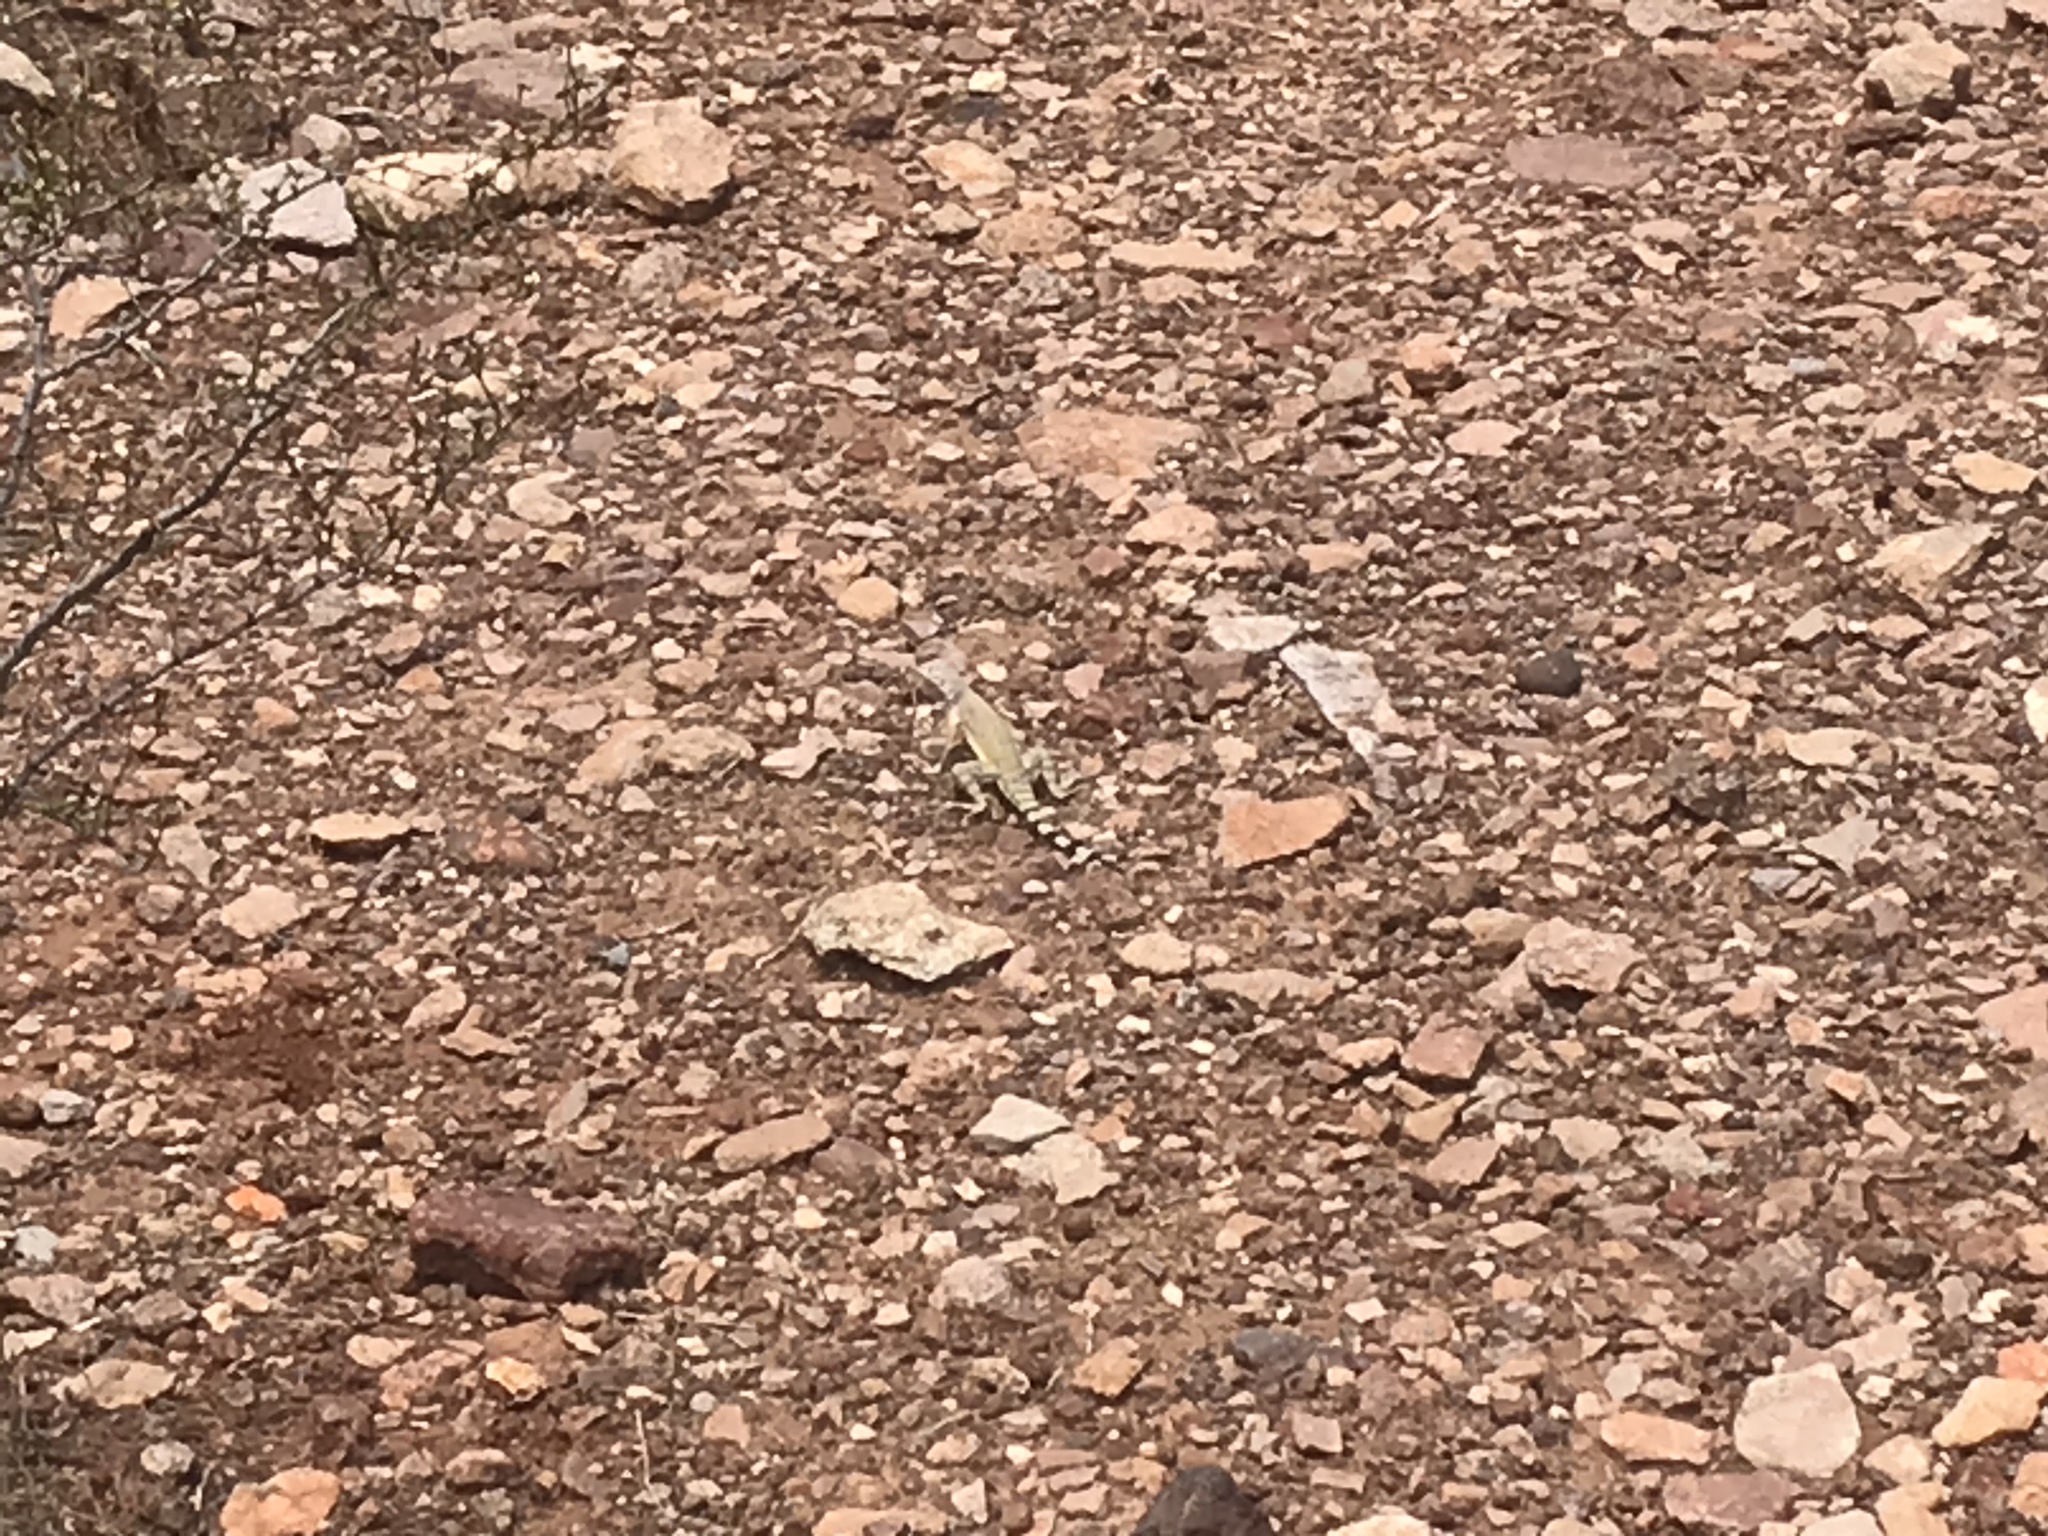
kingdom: Animalia
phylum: Chordata
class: Squamata
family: Phrynosomatidae
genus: Callisaurus
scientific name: Callisaurus draconoides
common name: Zebra-tailed lizard
